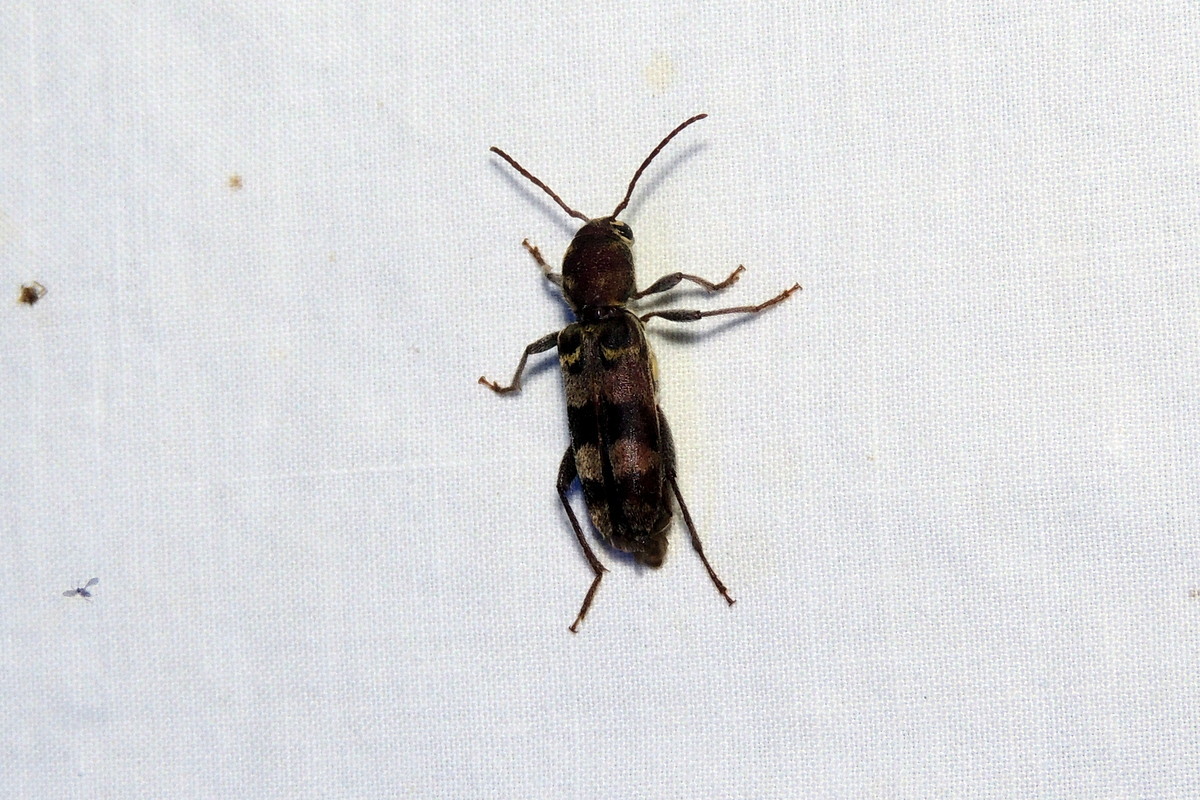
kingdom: Animalia
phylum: Arthropoda
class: Insecta
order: Coleoptera
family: Cerambycidae
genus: Xylotrechus
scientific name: Xylotrechus colonus
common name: Long-horned beetle
